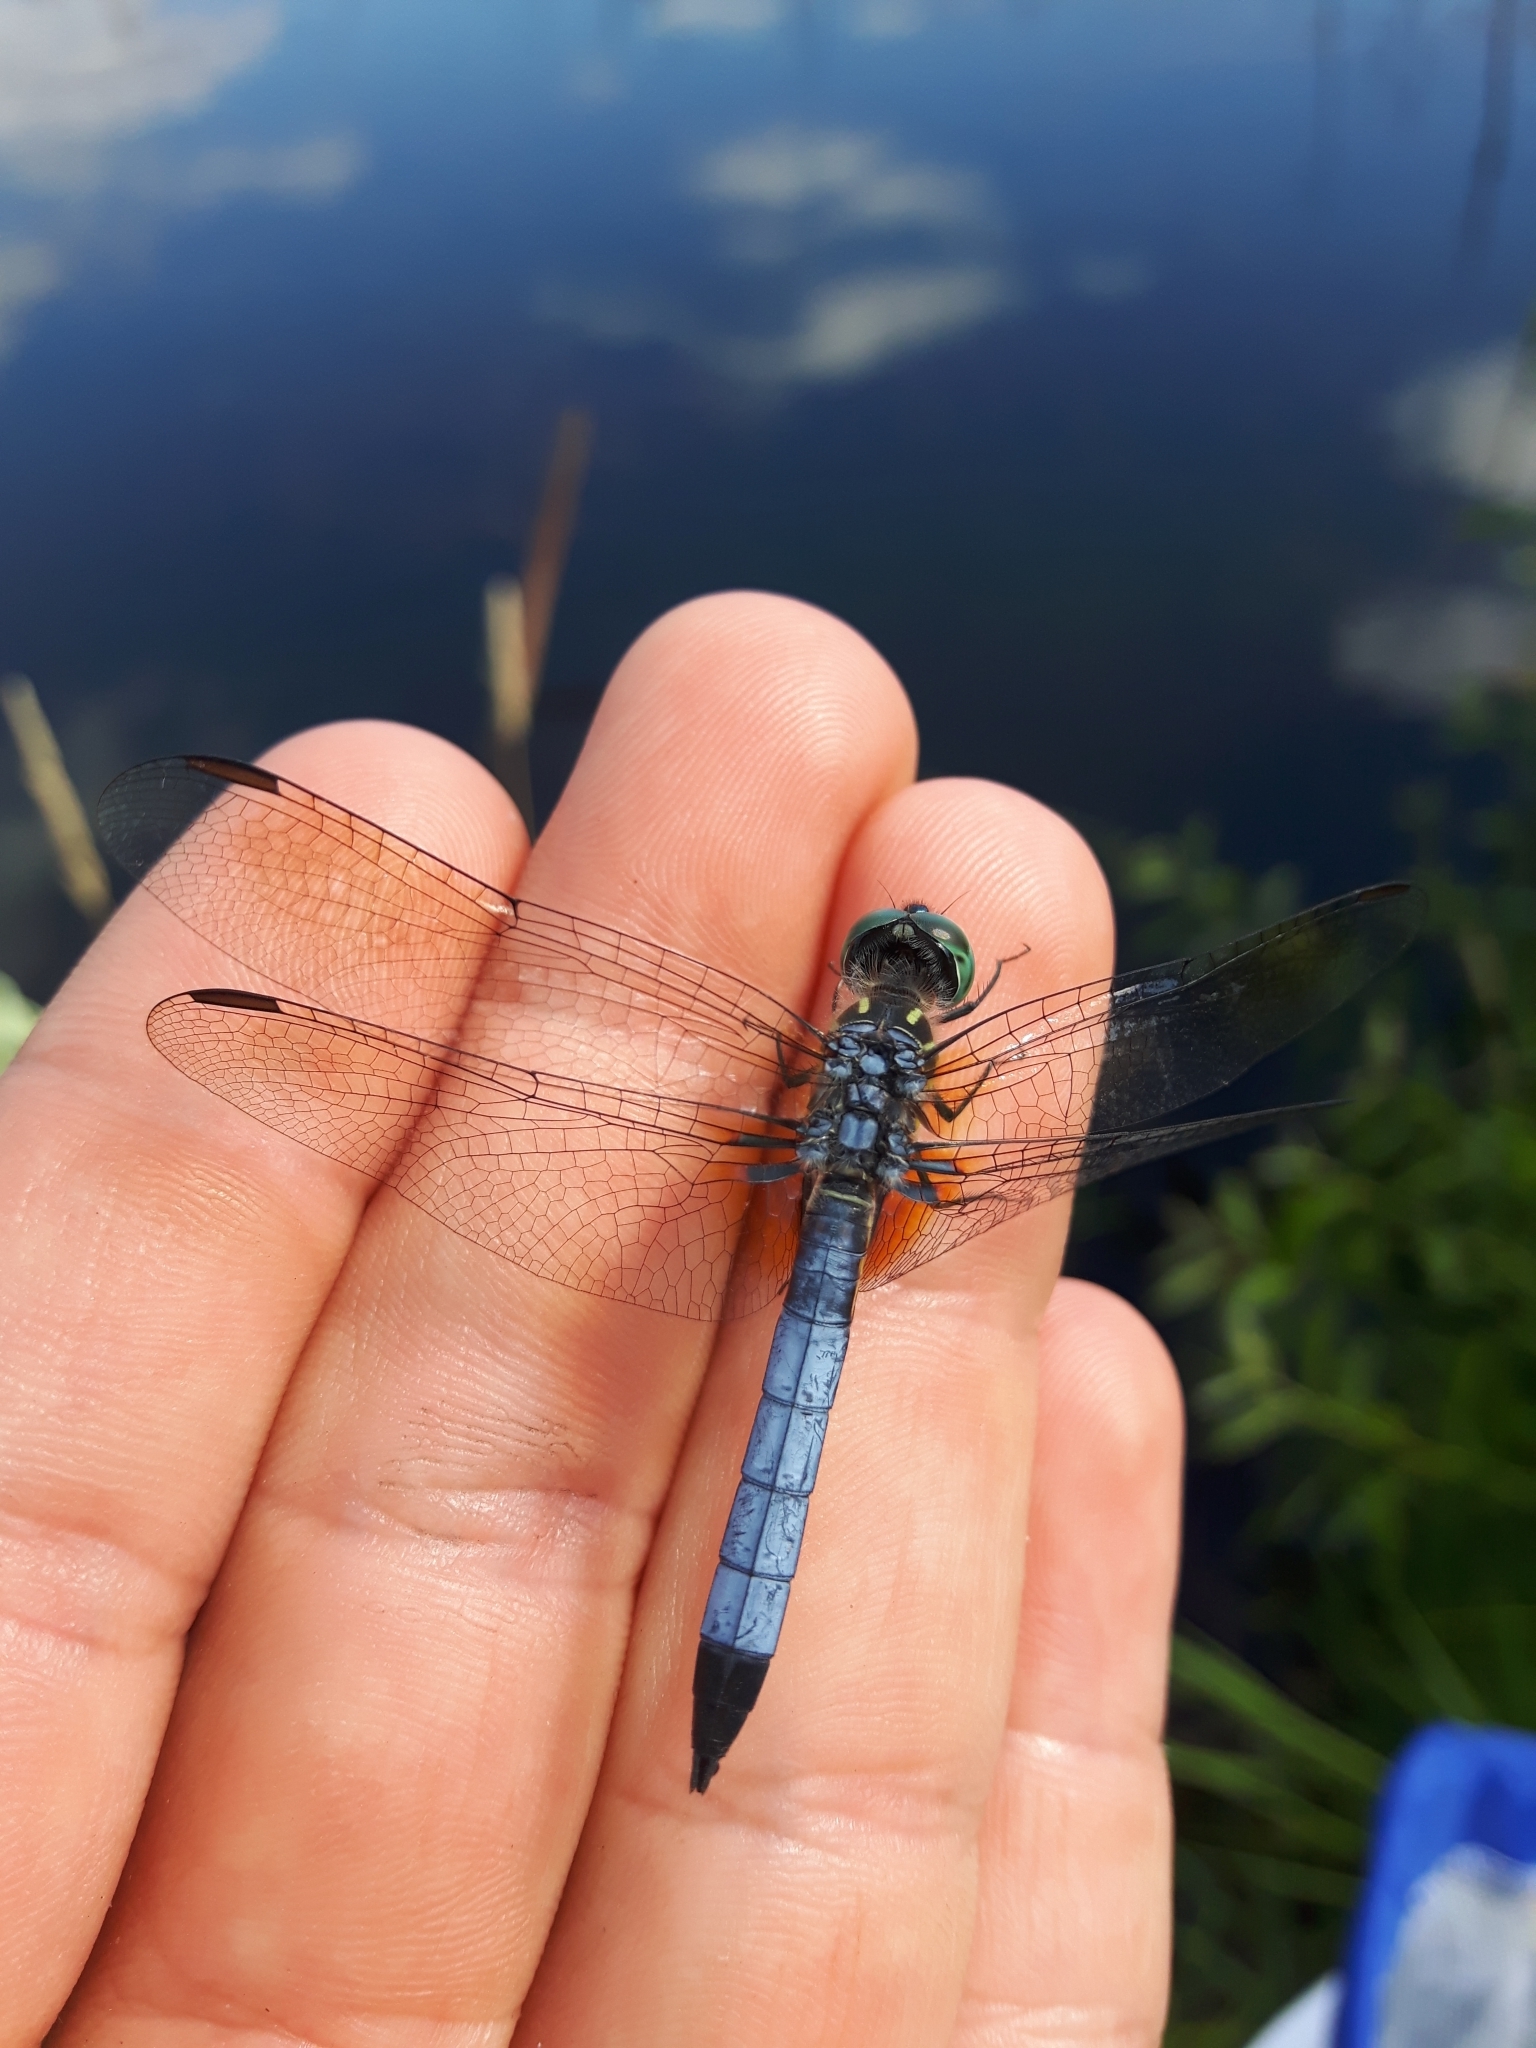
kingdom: Animalia
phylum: Arthropoda
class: Insecta
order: Odonata
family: Libellulidae
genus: Pachydiplax
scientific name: Pachydiplax longipennis
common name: Blue dasher
